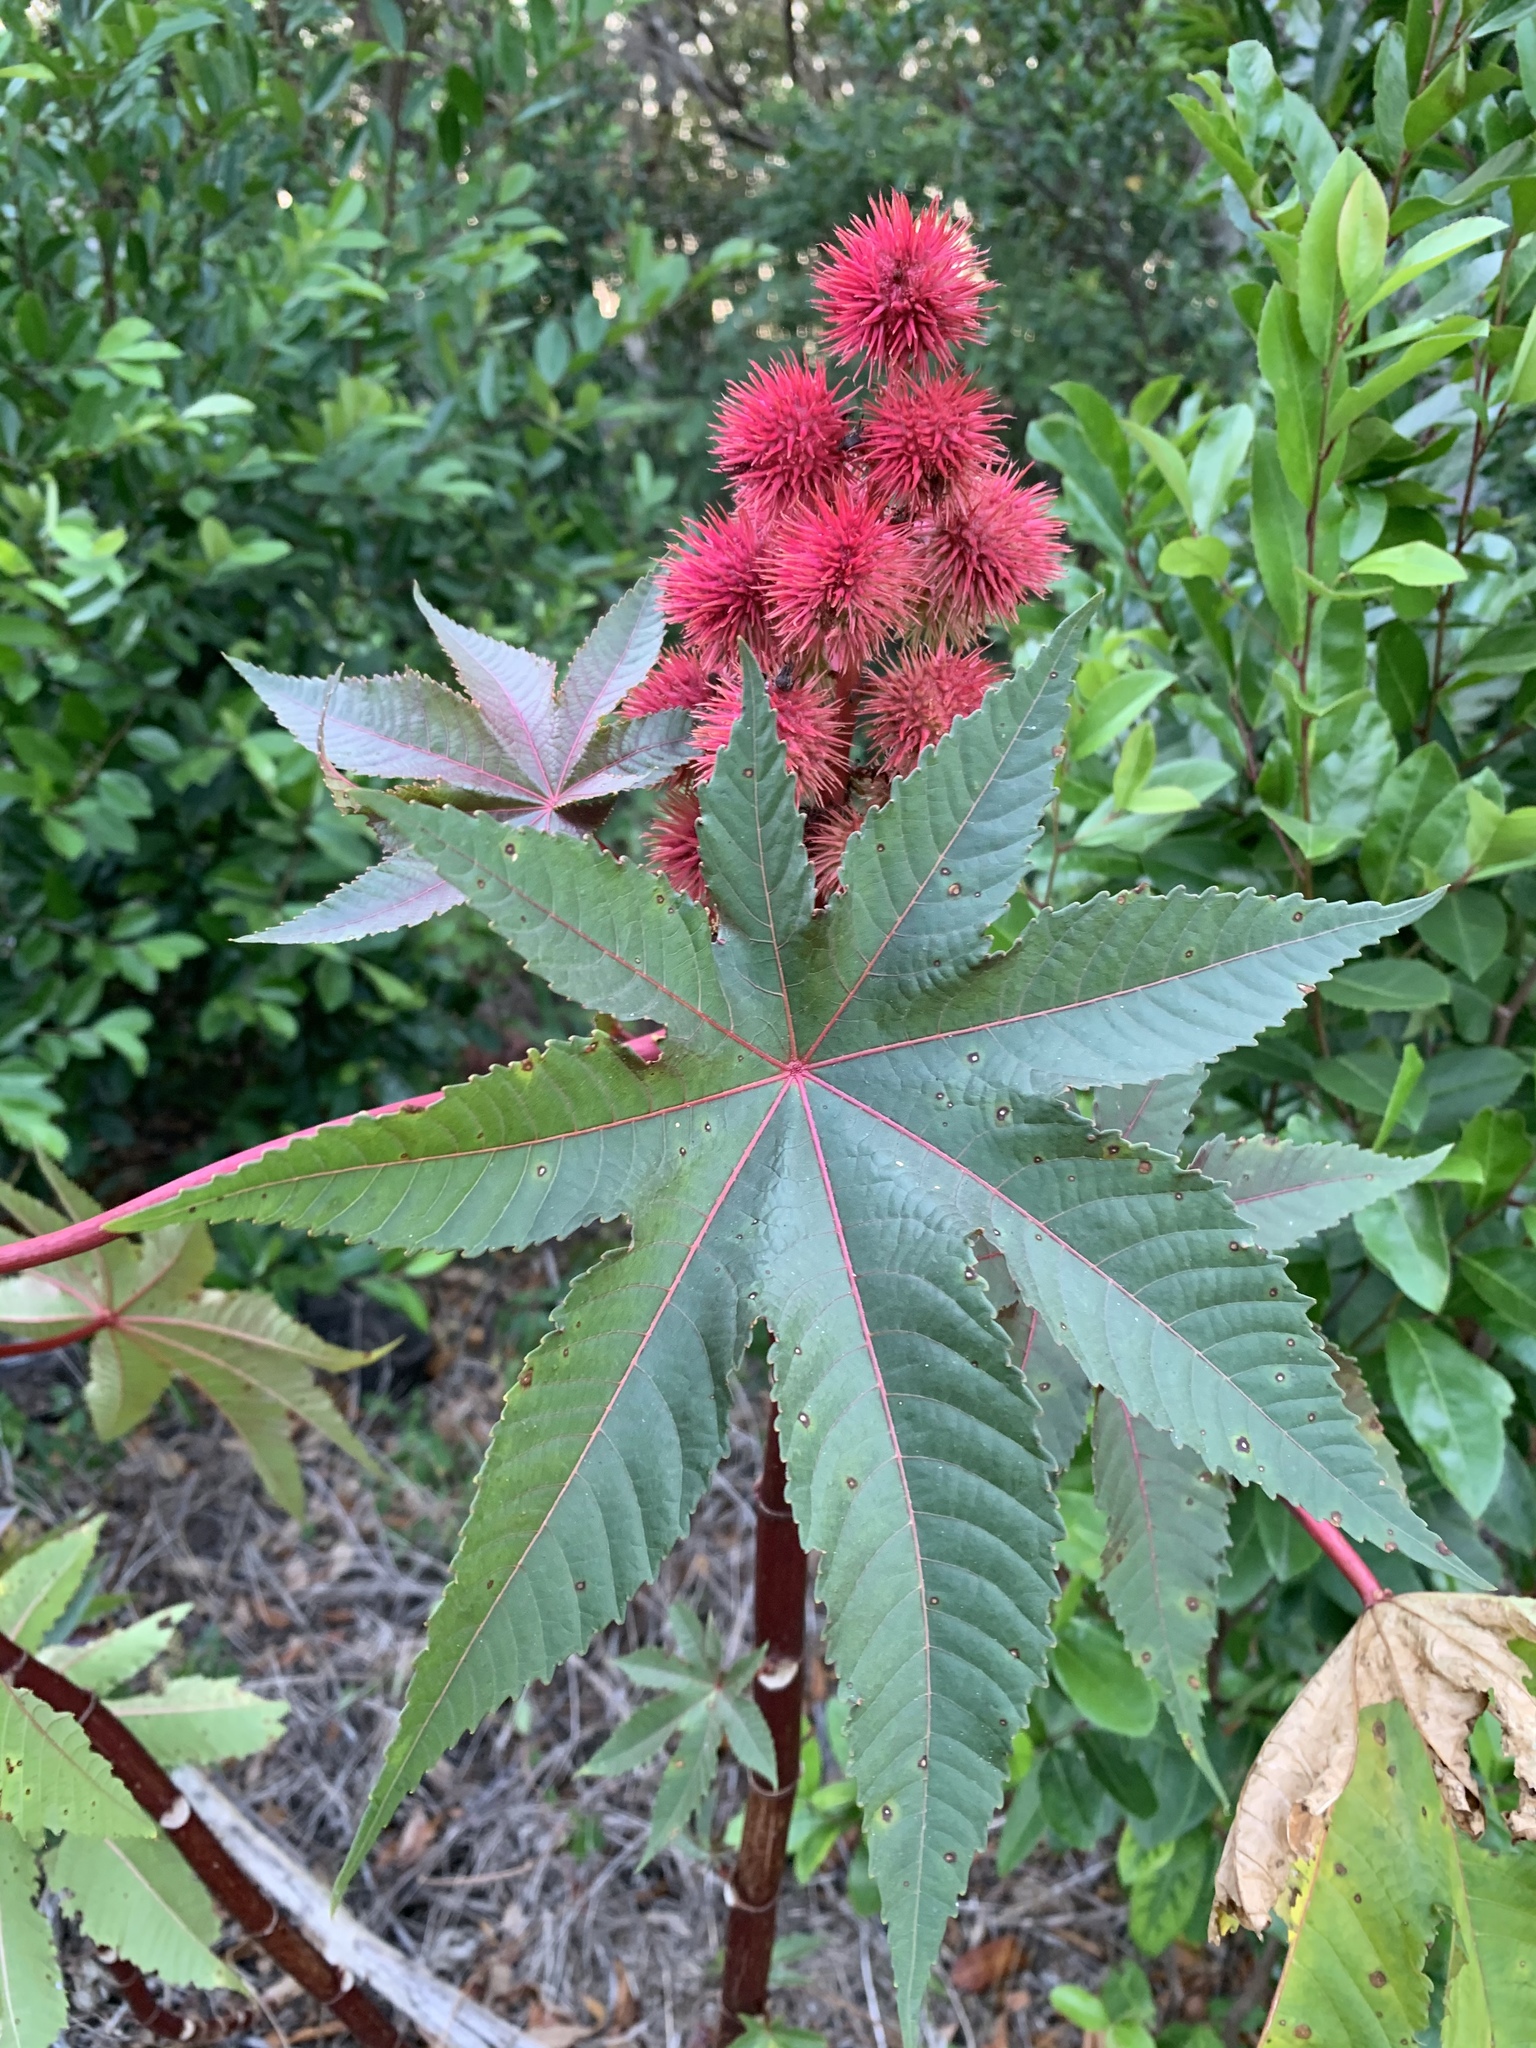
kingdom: Plantae
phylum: Tracheophyta
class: Magnoliopsida
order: Malpighiales
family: Euphorbiaceae
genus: Ricinus
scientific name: Ricinus communis
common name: Castor-oil-plant
